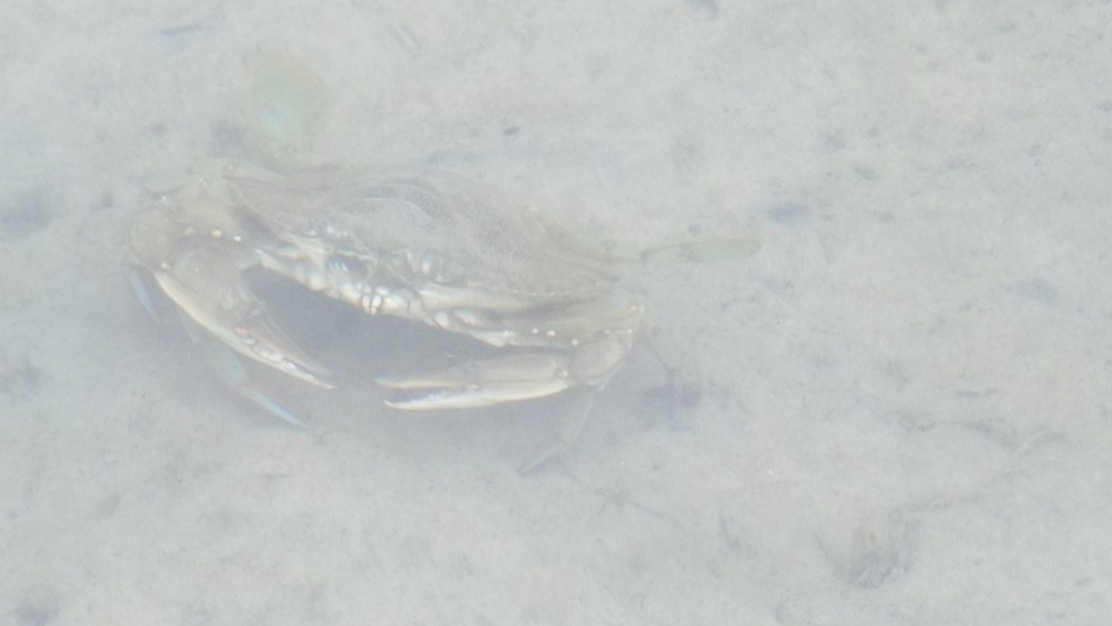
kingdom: Animalia
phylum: Arthropoda
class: Malacostraca
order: Decapoda
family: Portunidae
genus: Callinectes
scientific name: Callinectes sapidus
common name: Blue crab
